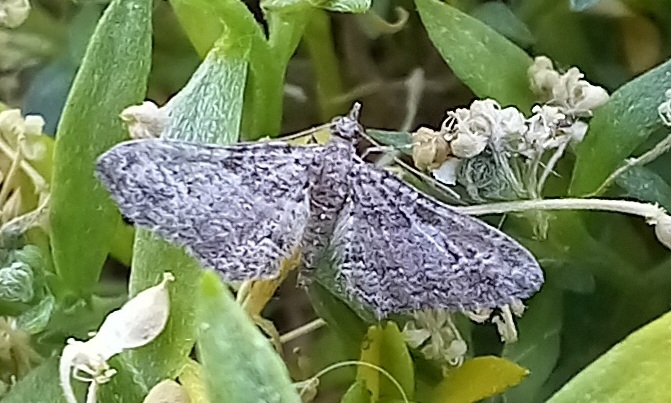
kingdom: Animalia
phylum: Arthropoda
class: Insecta
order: Lepidoptera
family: Geometridae
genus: Gymnoscelis
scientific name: Gymnoscelis rufifasciata
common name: Double-striped pug
